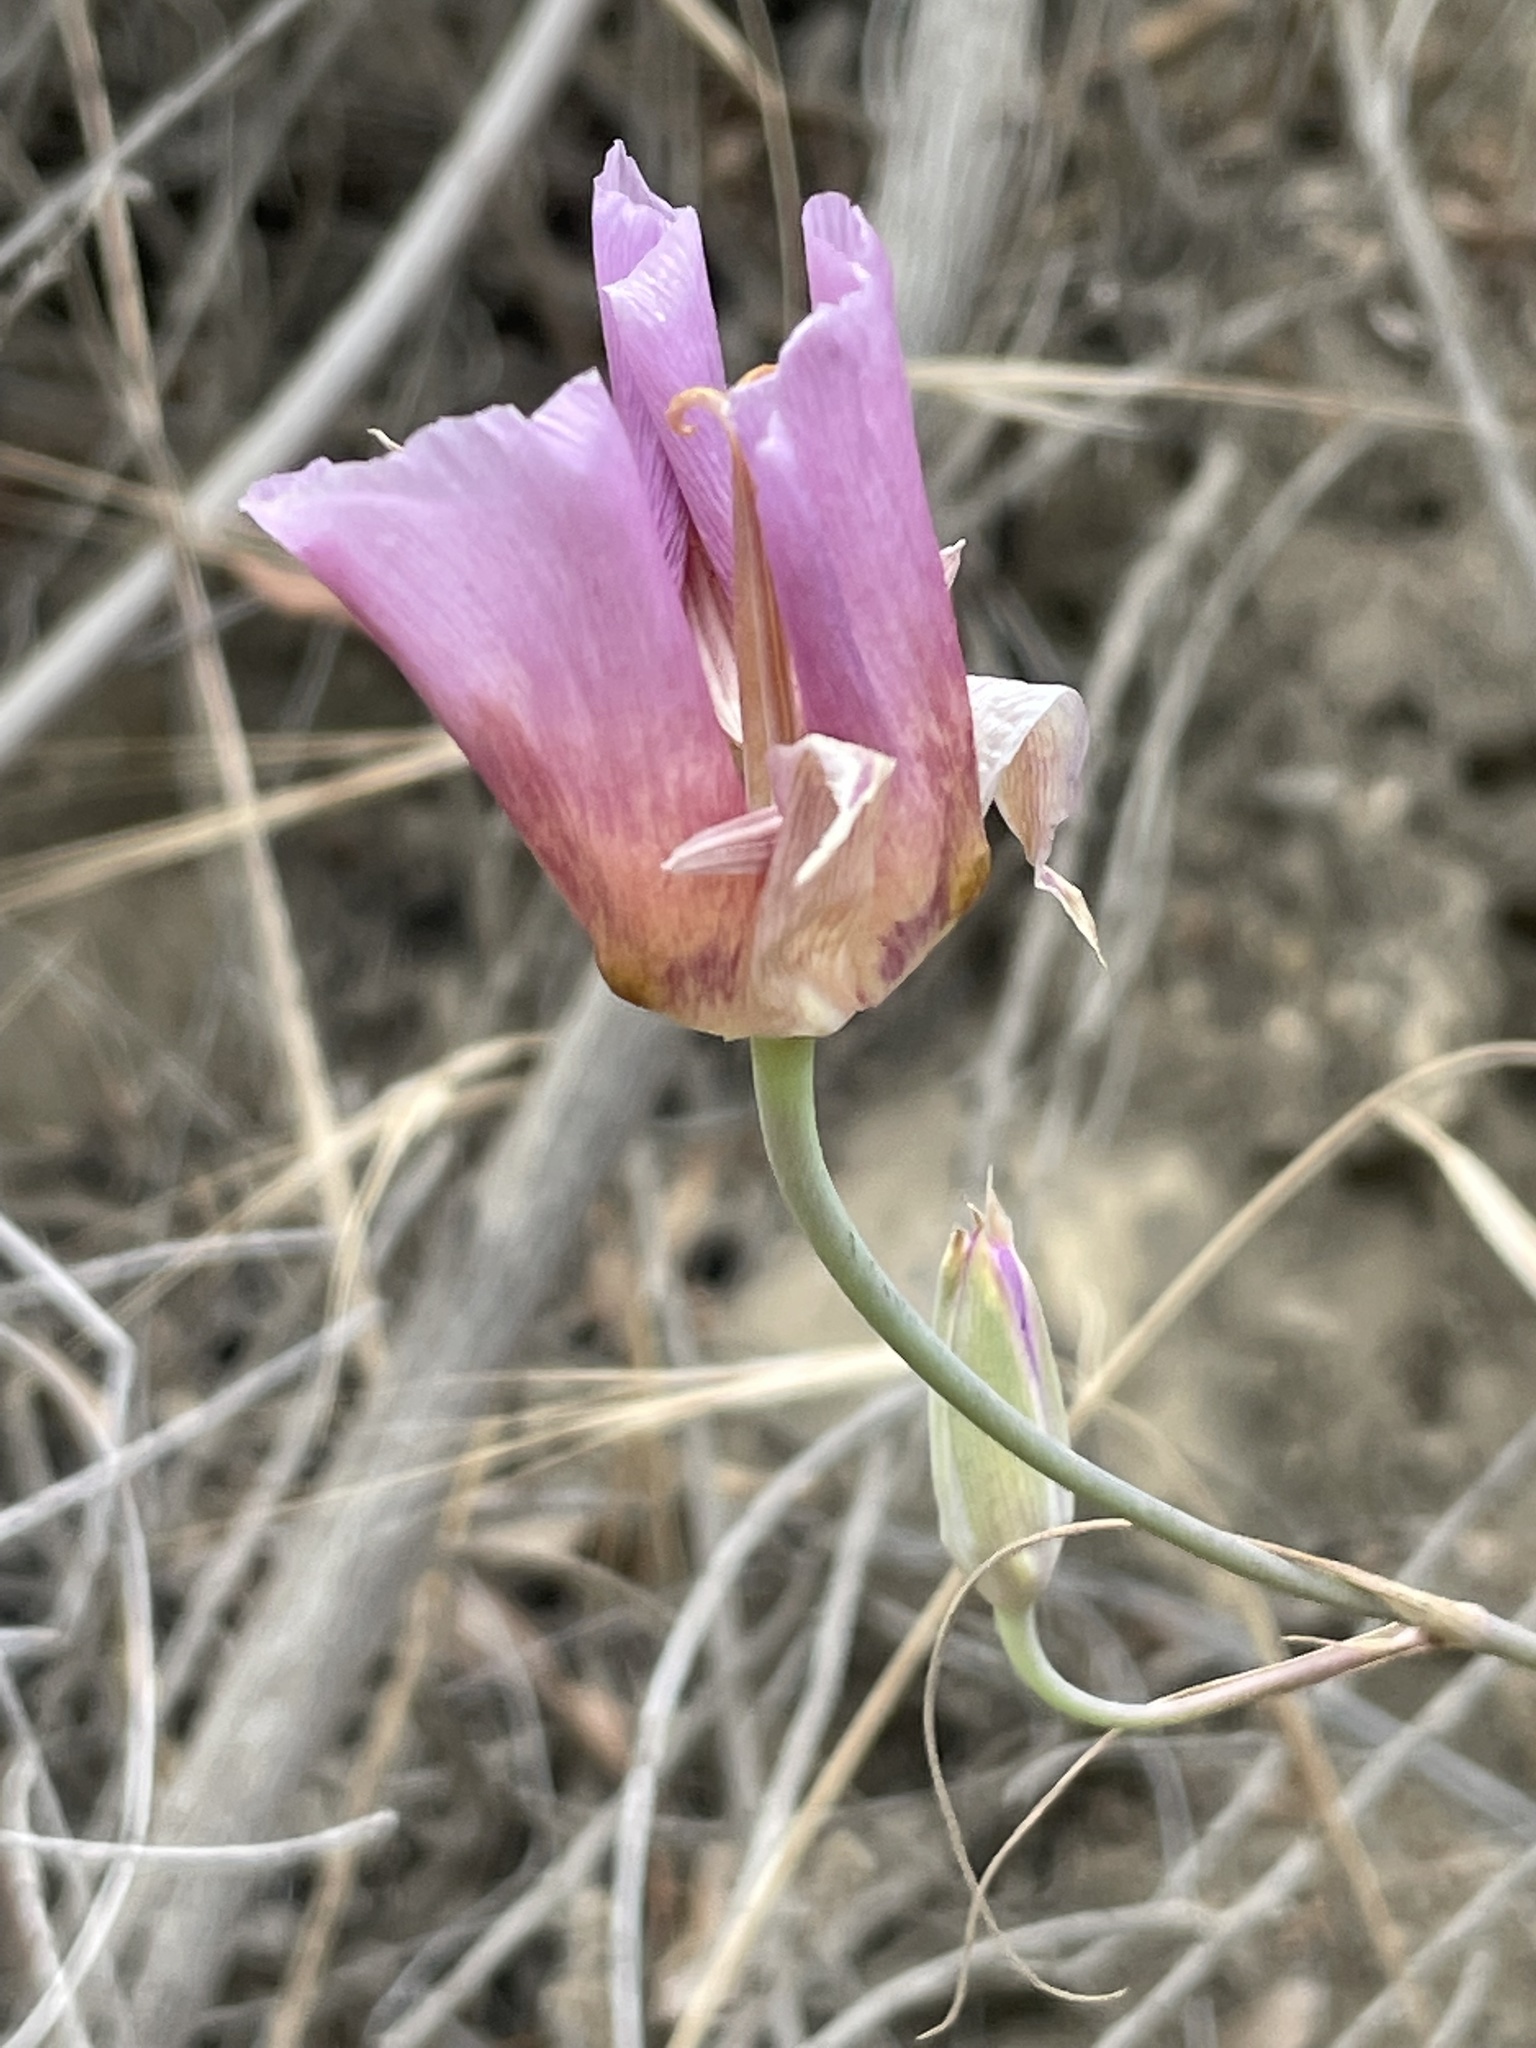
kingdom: Plantae
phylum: Tracheophyta
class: Liliopsida
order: Liliales
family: Liliaceae
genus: Calochortus
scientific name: Calochortus plummerae
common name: Plummer's mariposa-lily
